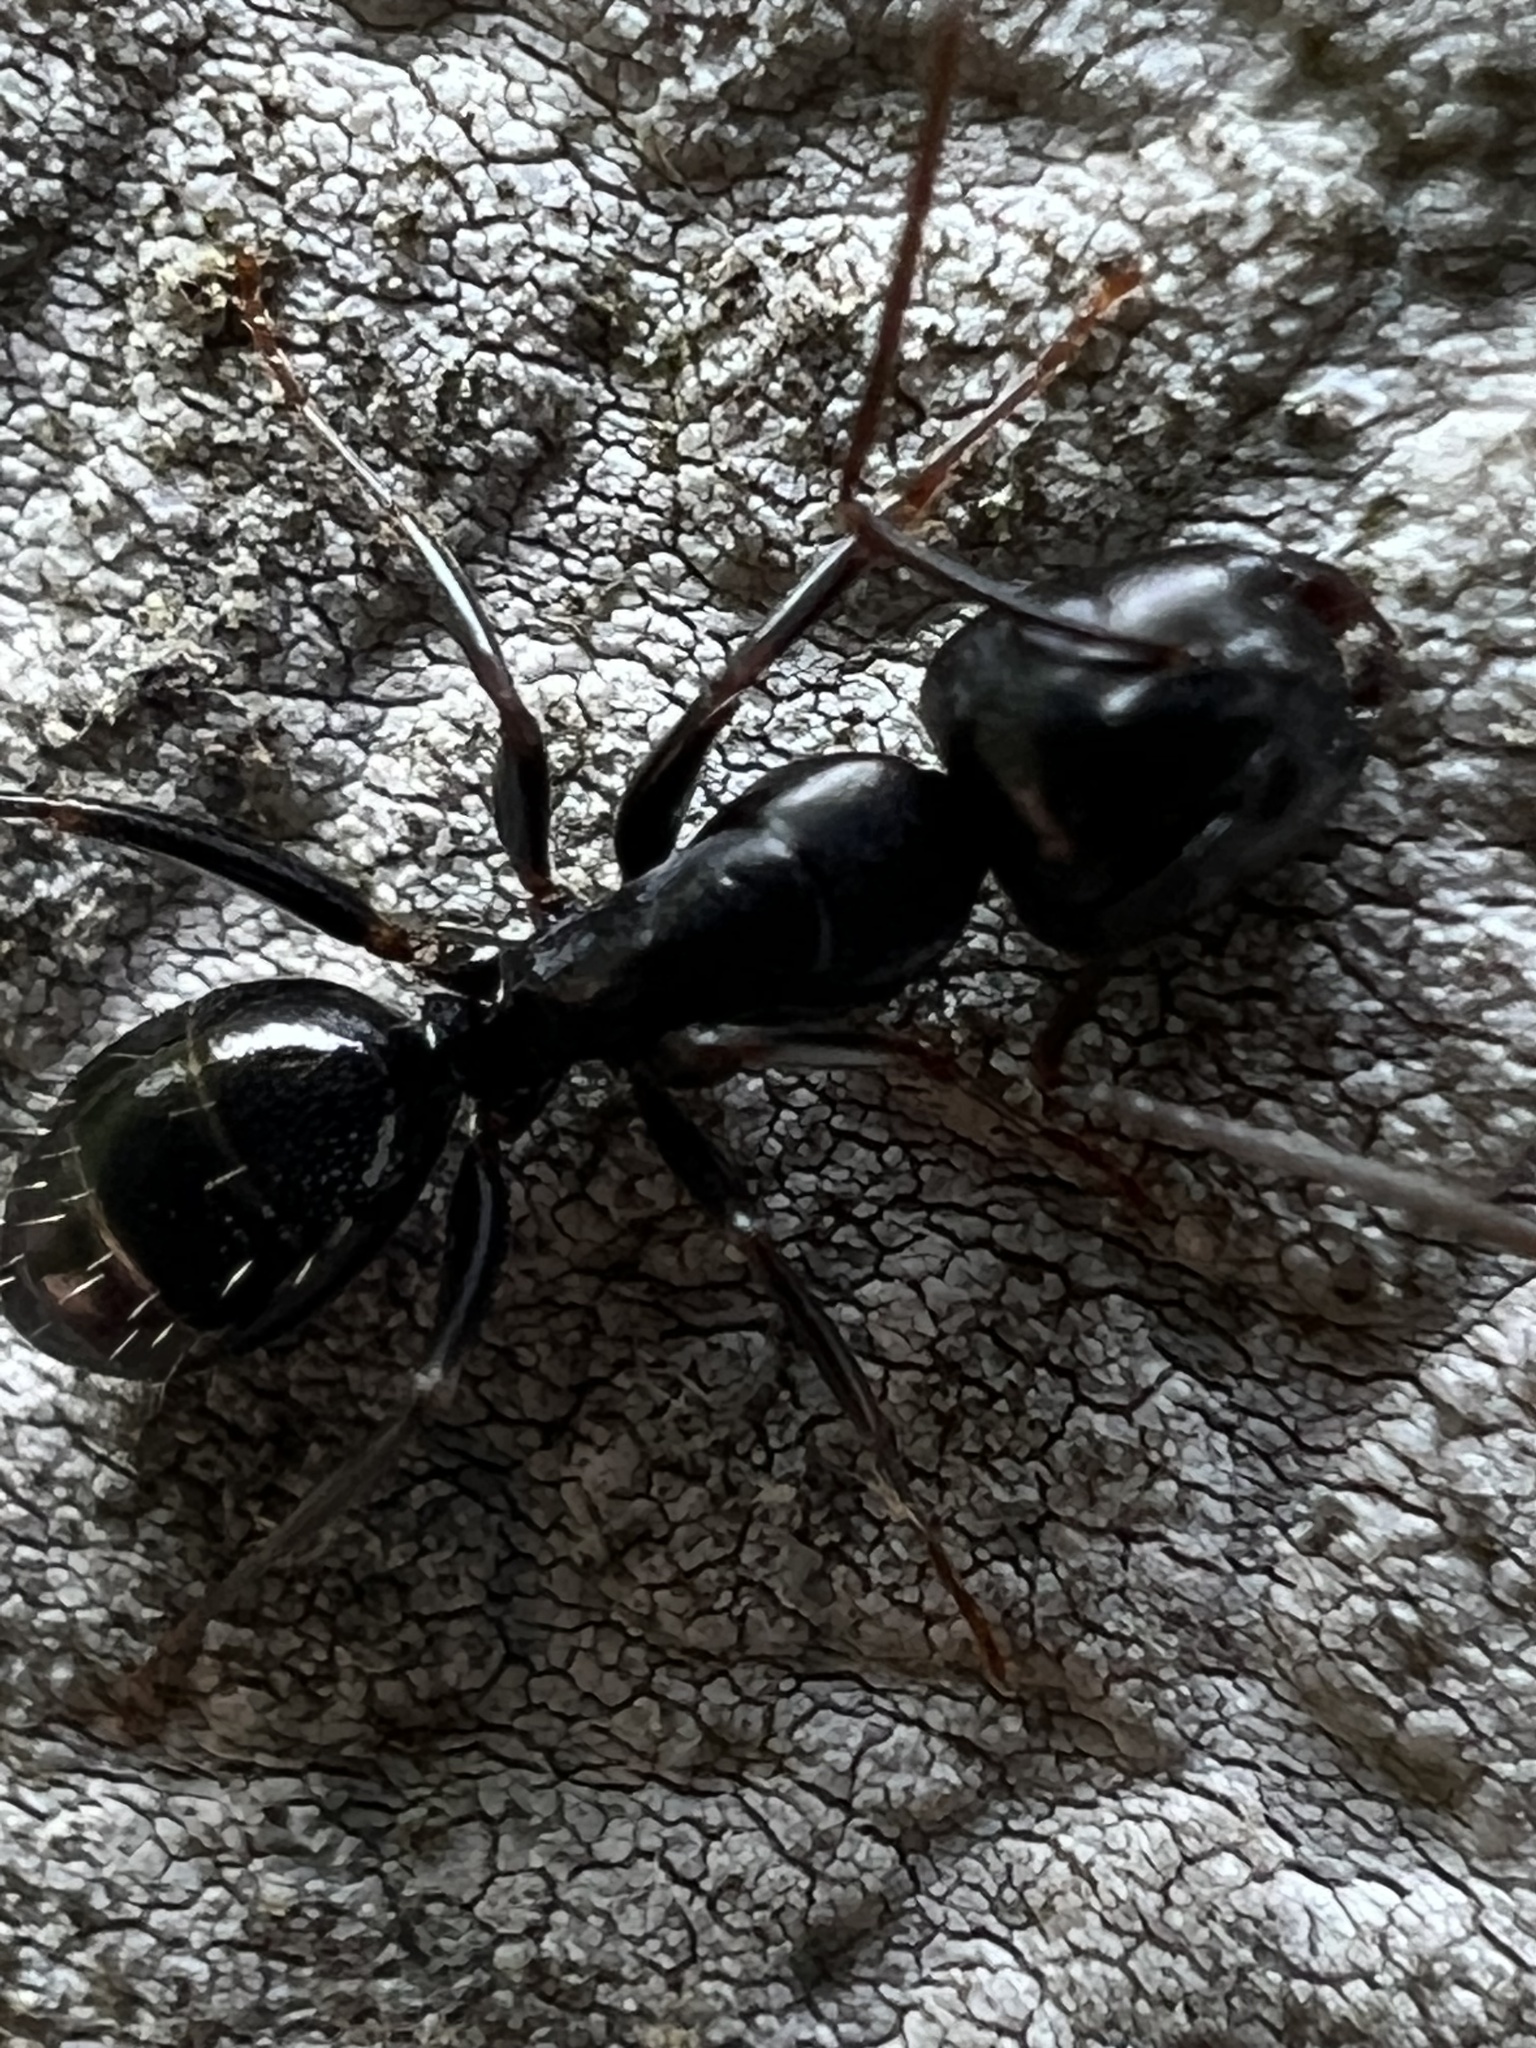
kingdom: Animalia
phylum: Arthropoda
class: Insecta
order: Hymenoptera
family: Formicidae
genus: Camponotus
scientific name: Camponotus nearcticus
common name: Smaller carpenter ant
